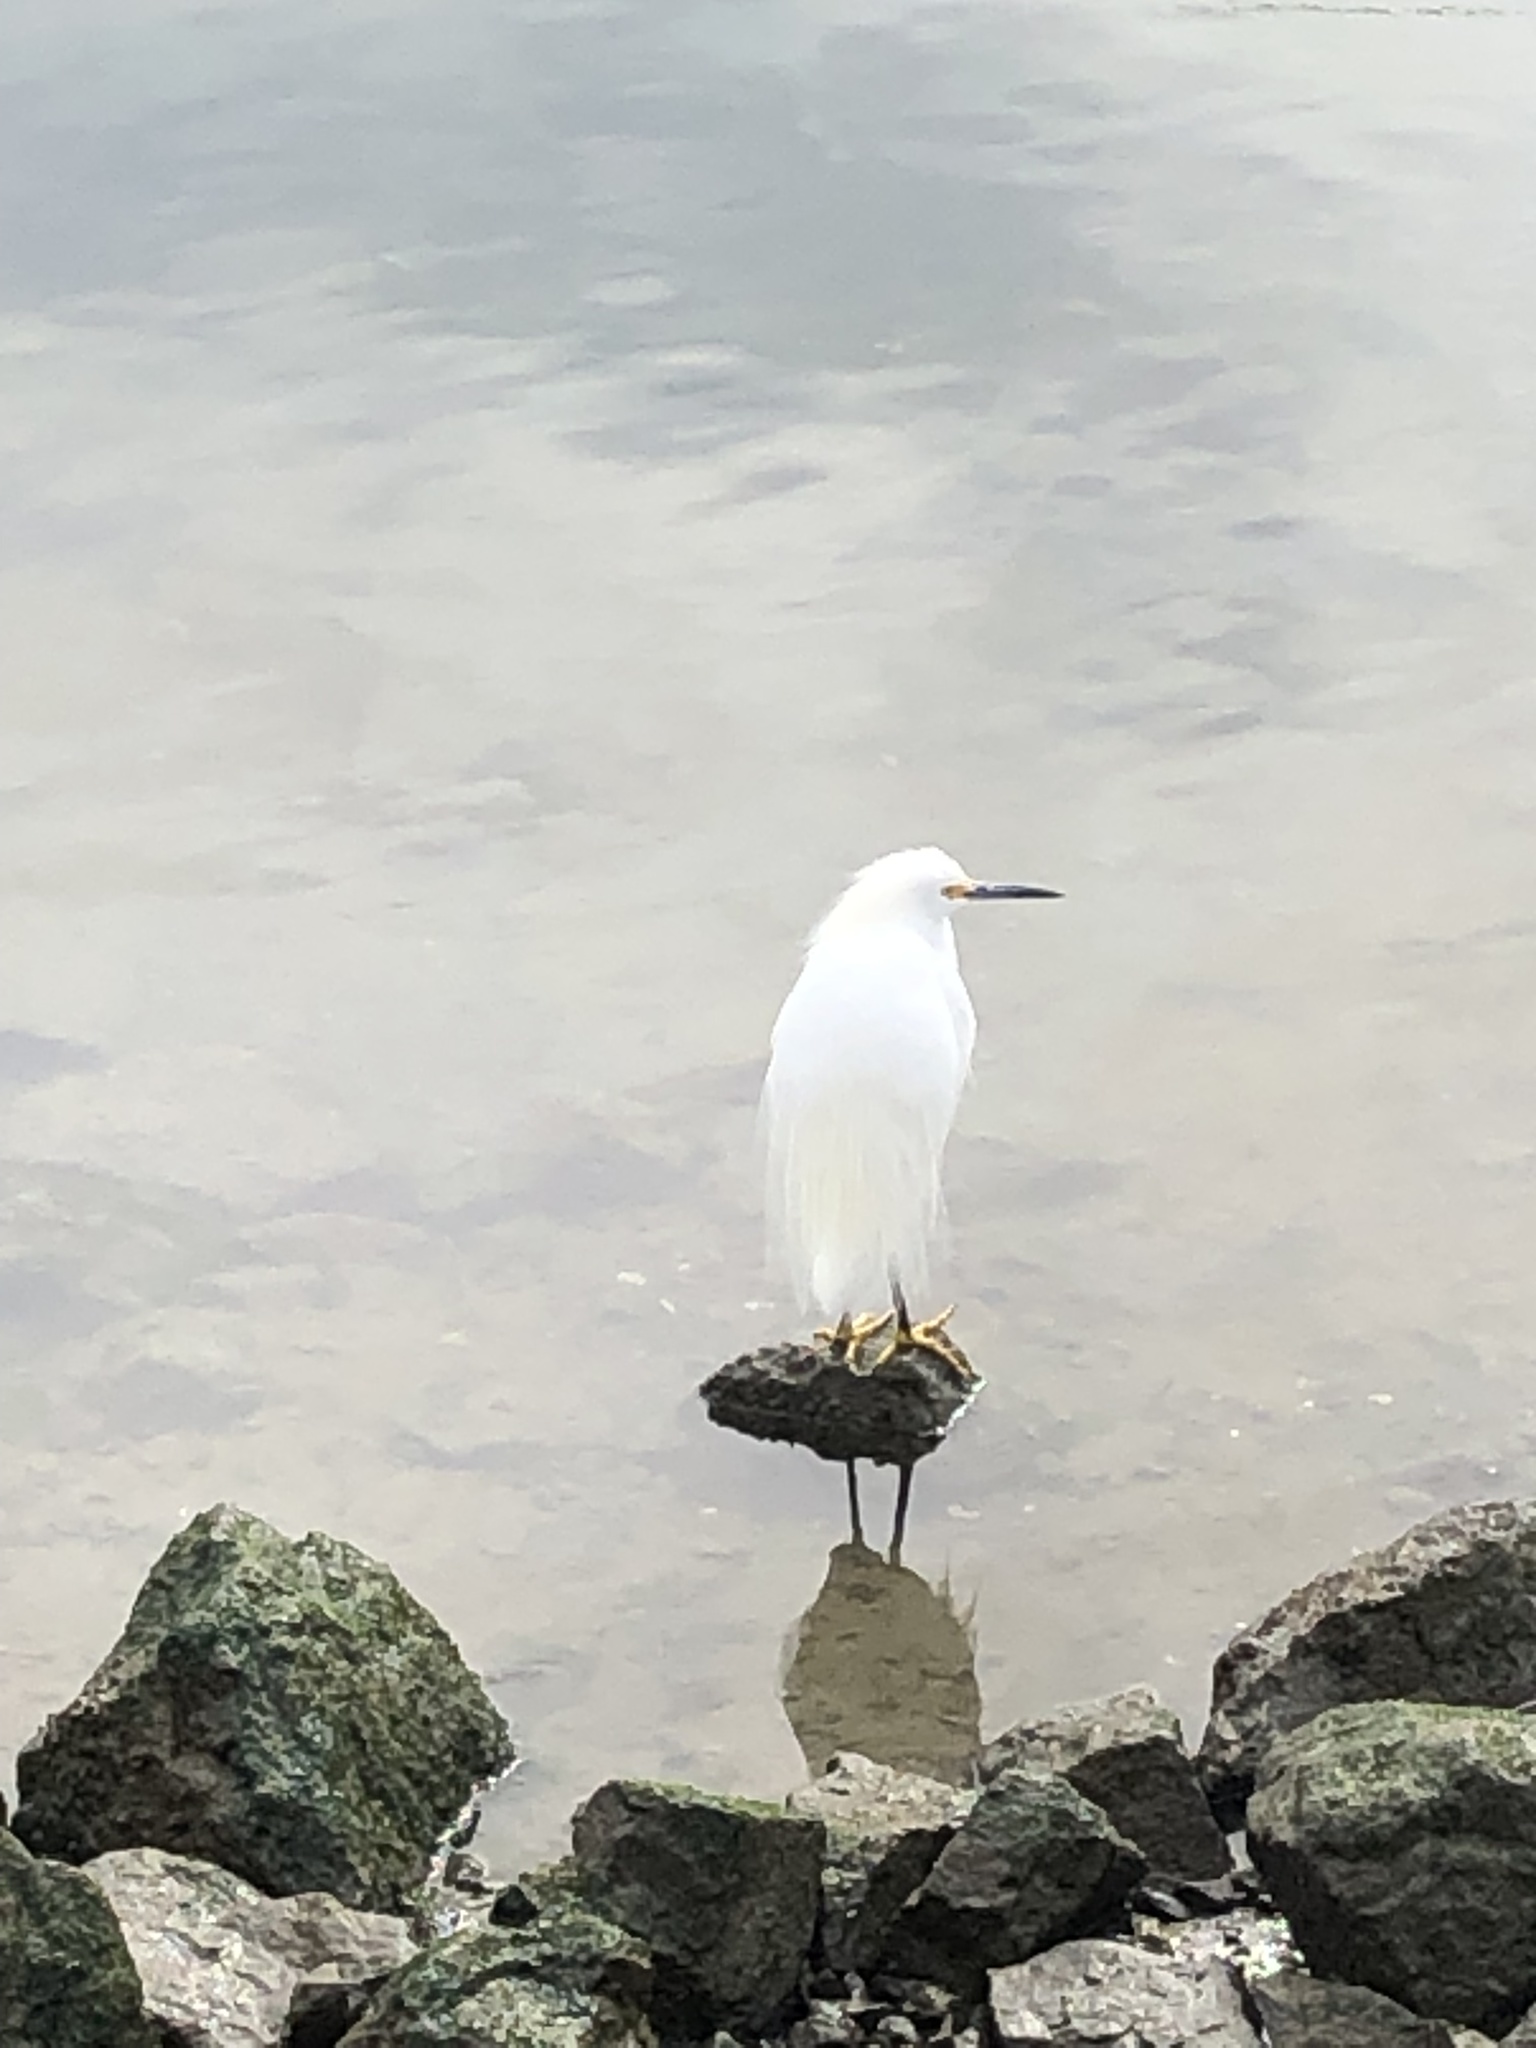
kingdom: Animalia
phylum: Chordata
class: Aves
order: Pelecaniformes
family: Ardeidae
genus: Egretta
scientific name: Egretta thula
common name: Snowy egret
